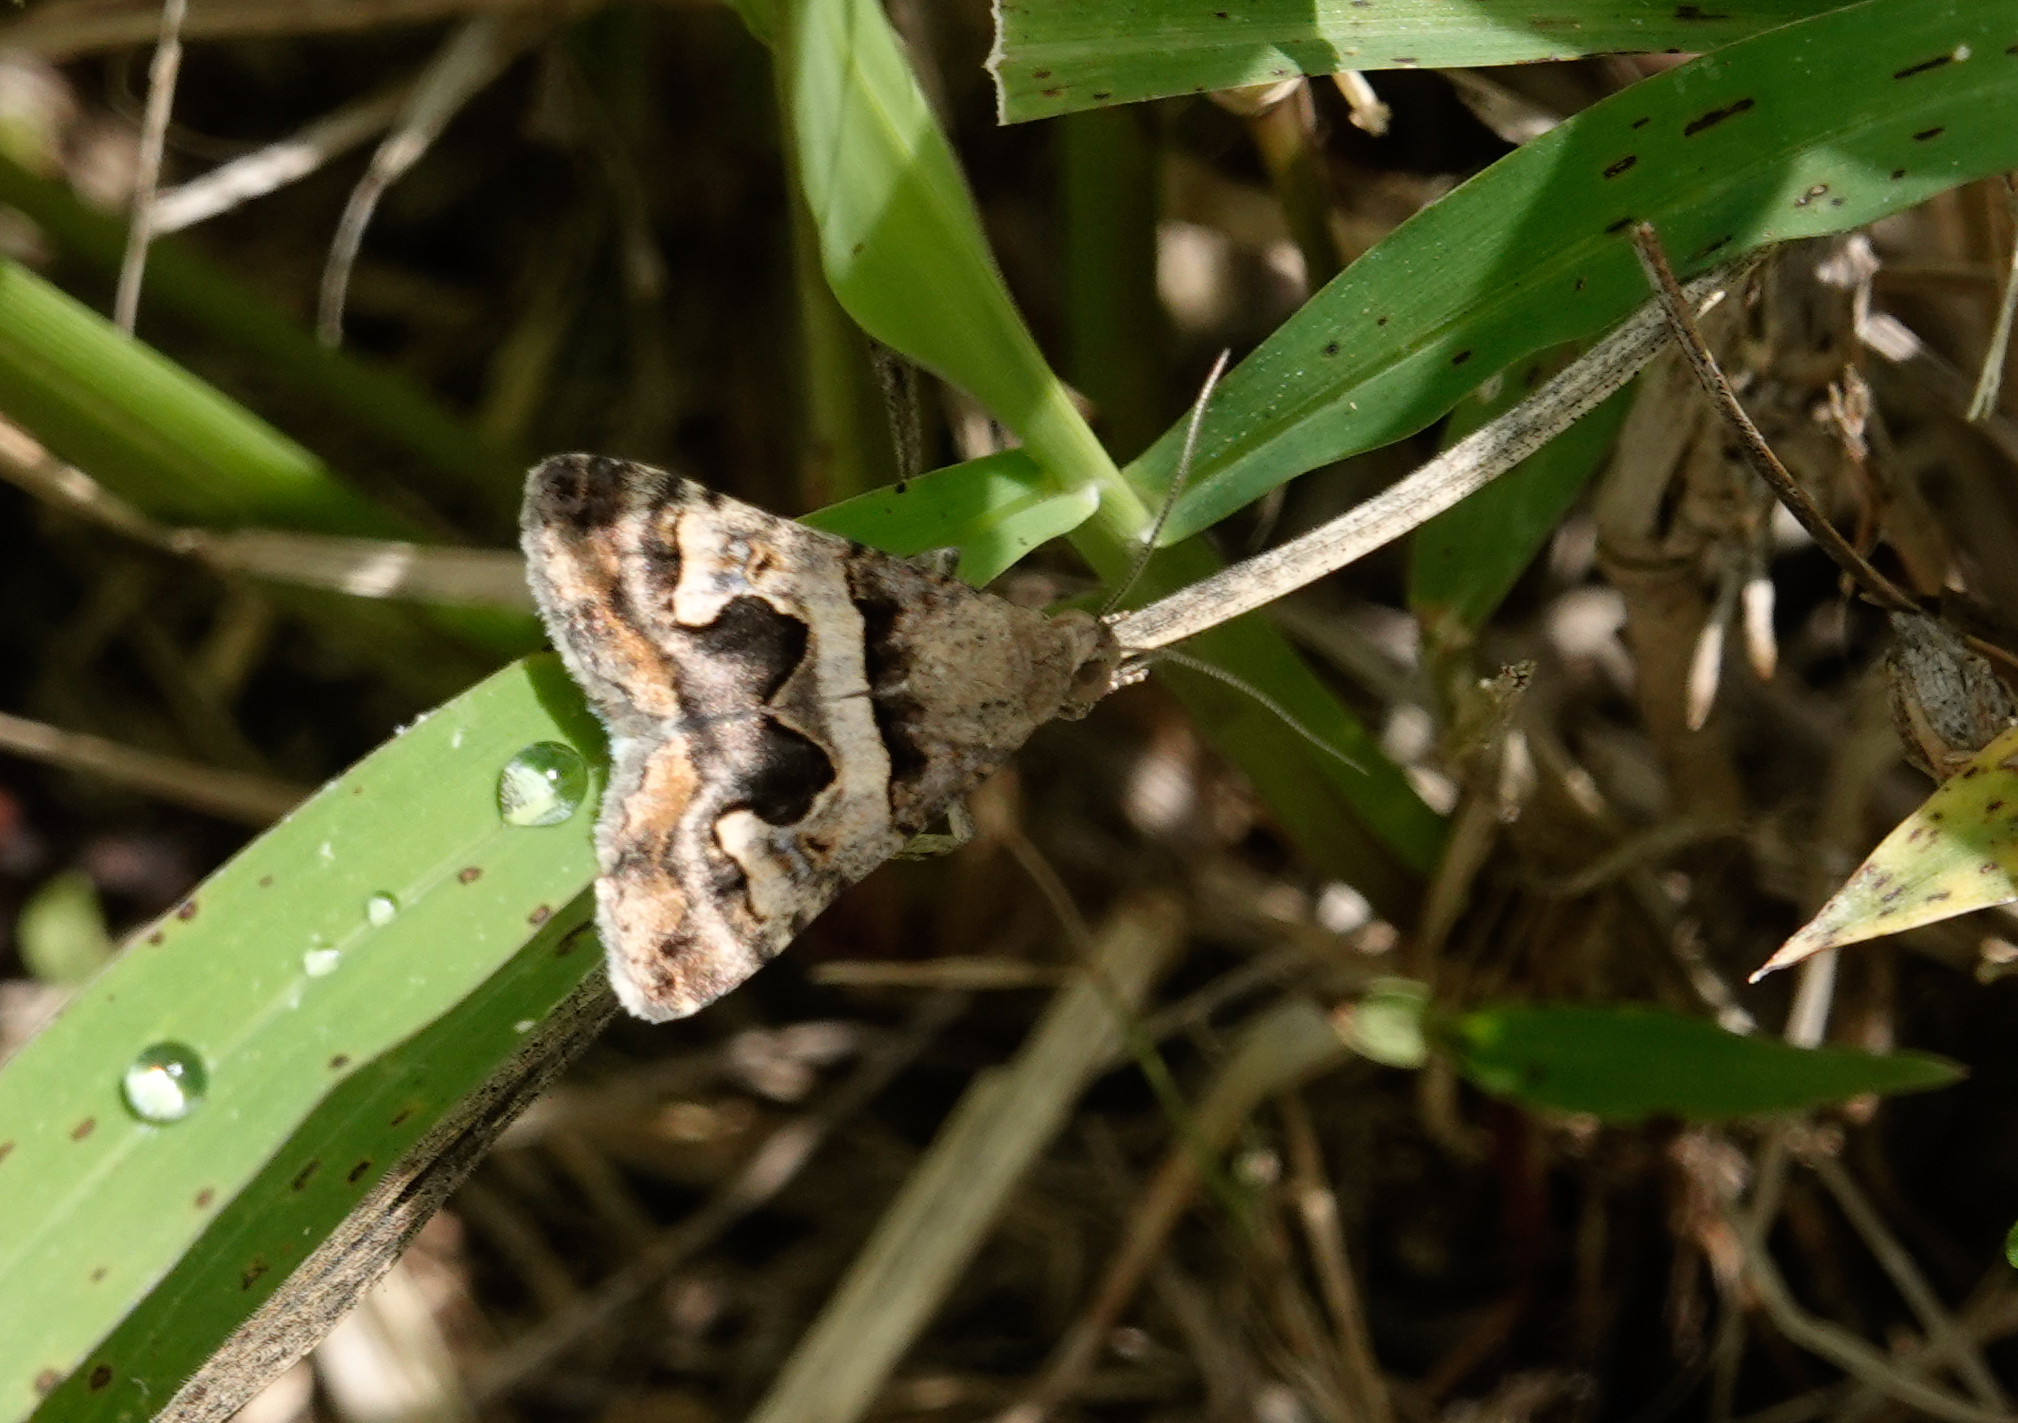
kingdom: Animalia
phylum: Arthropoda
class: Insecta
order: Lepidoptera
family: Erebidae
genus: Bulia
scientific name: Bulia brunnearis
